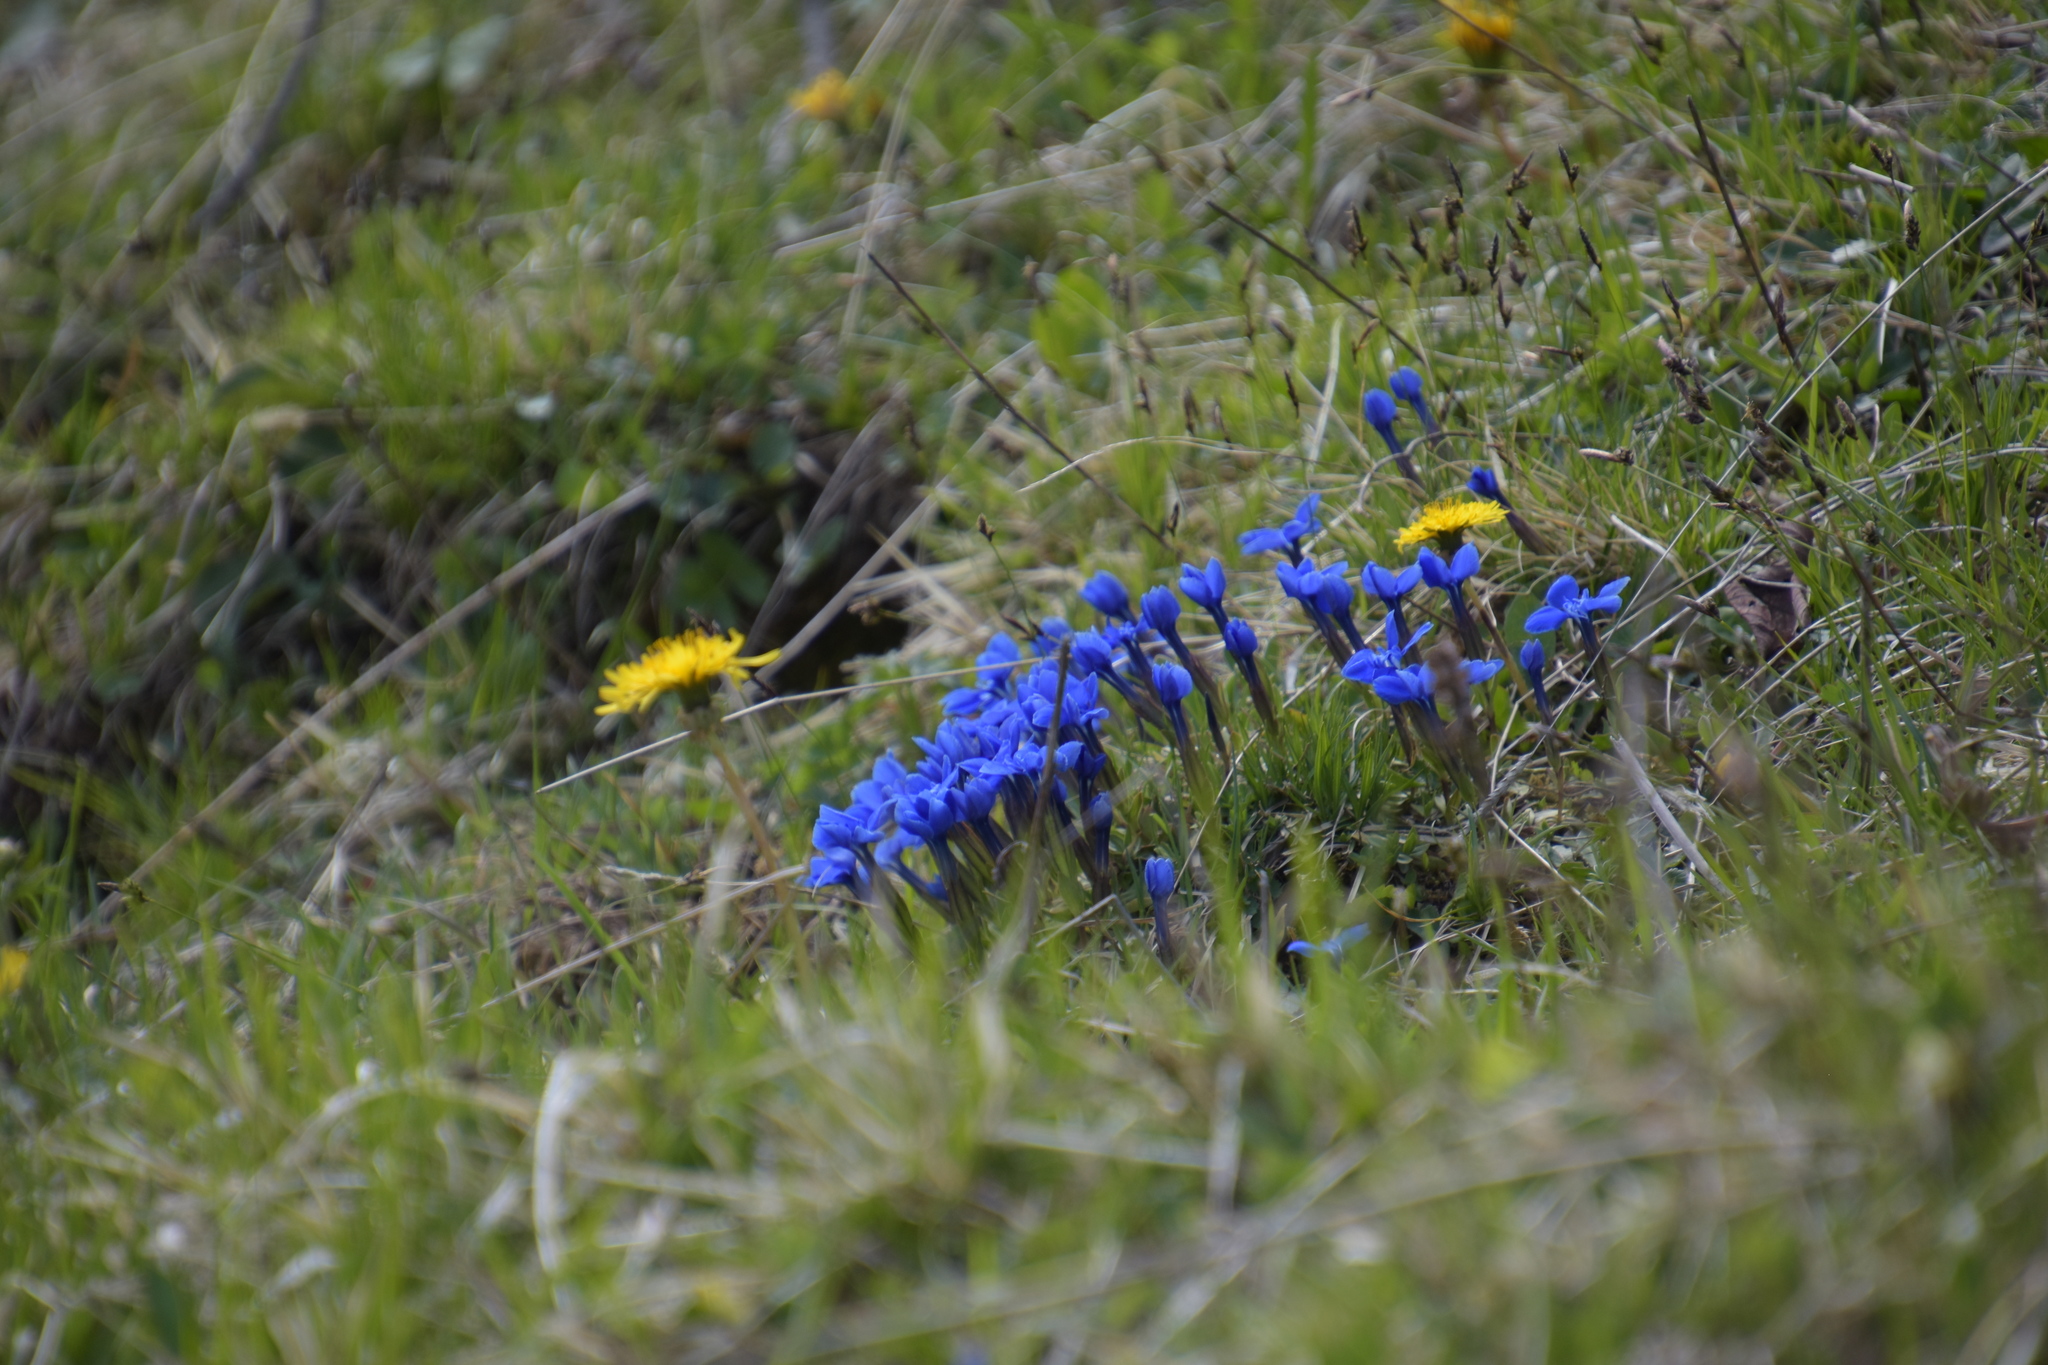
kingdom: Plantae
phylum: Tracheophyta
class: Magnoliopsida
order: Gentianales
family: Gentianaceae
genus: Gentiana
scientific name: Gentiana verna
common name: Spring gentian
